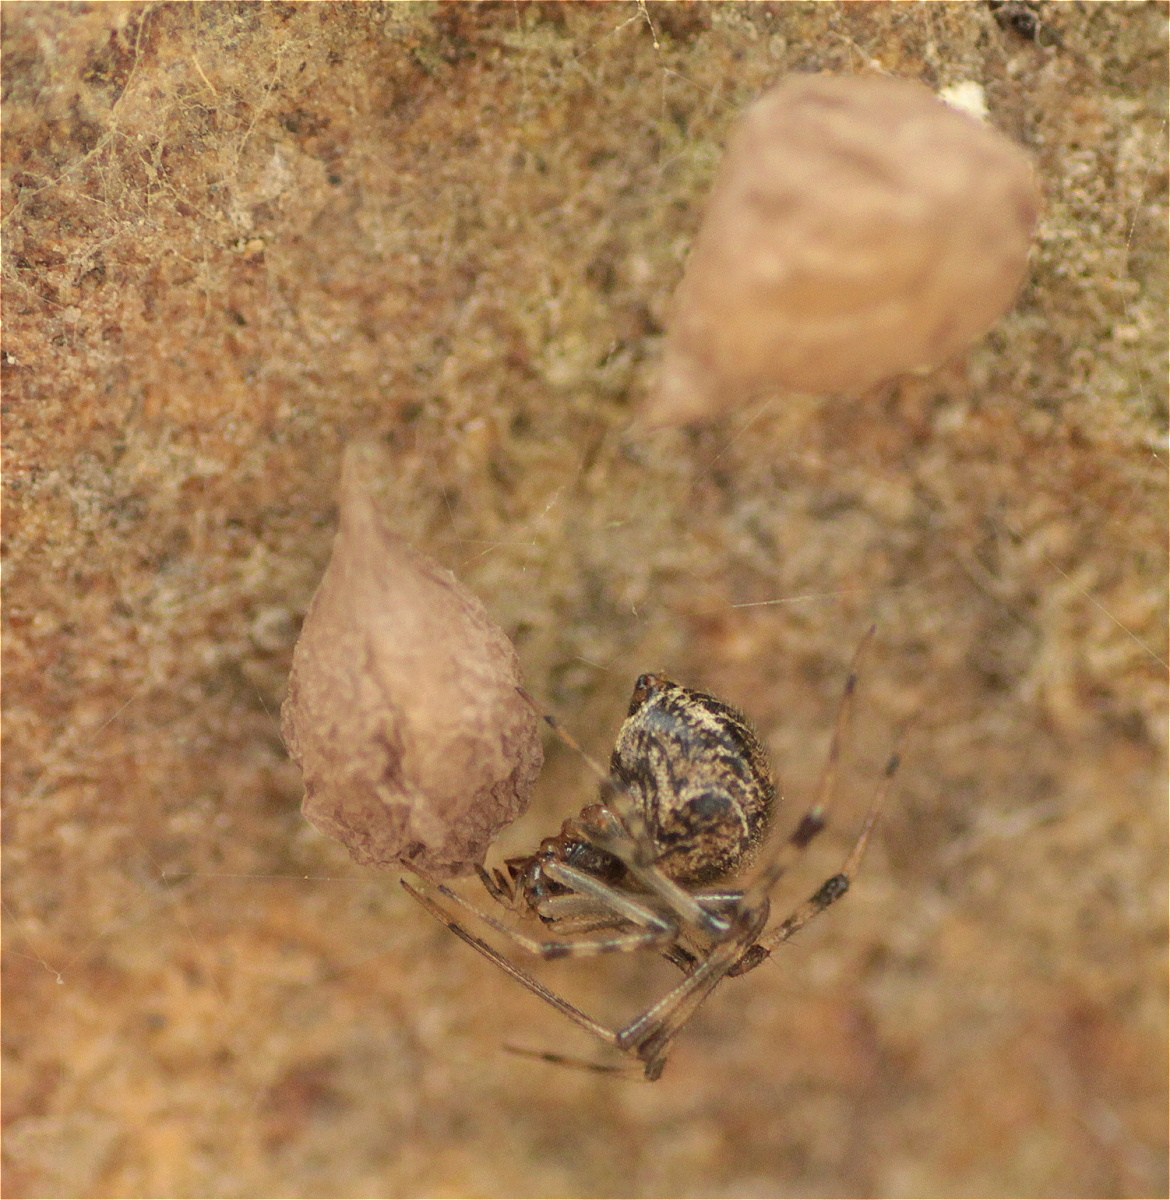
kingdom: Animalia
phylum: Arthropoda
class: Arachnida
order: Araneae
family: Theridiidae
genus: Parasteatoda
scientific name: Parasteatoda tepidariorum
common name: Common house spider
